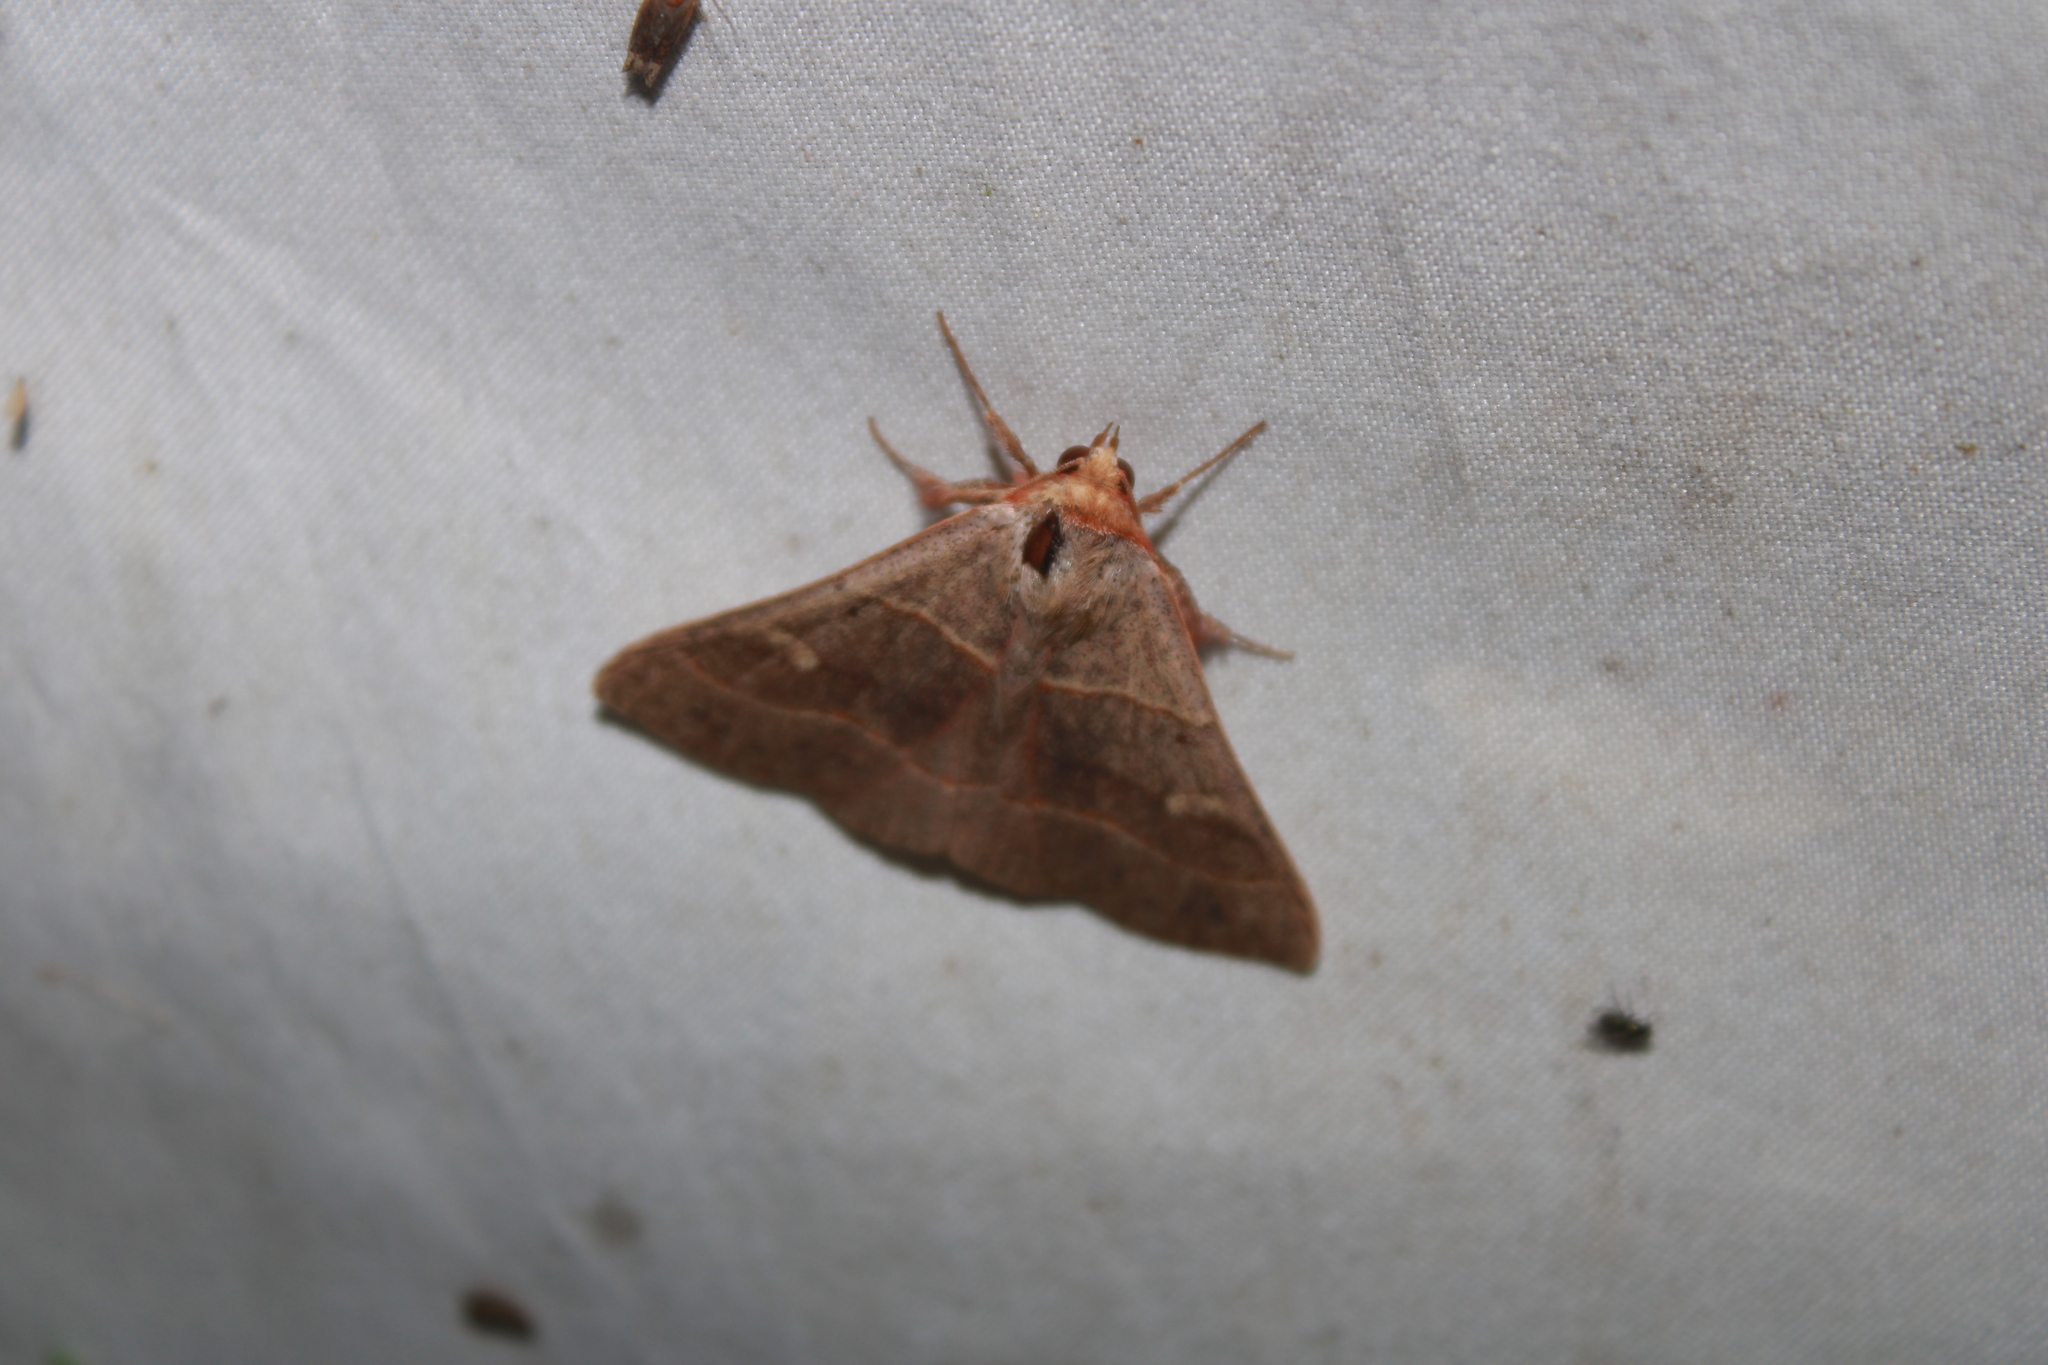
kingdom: Animalia
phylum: Arthropoda
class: Insecta
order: Lepidoptera
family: Erebidae
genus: Panopoda
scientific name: Panopoda rufimargo
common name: Red-lined panopoda moth
